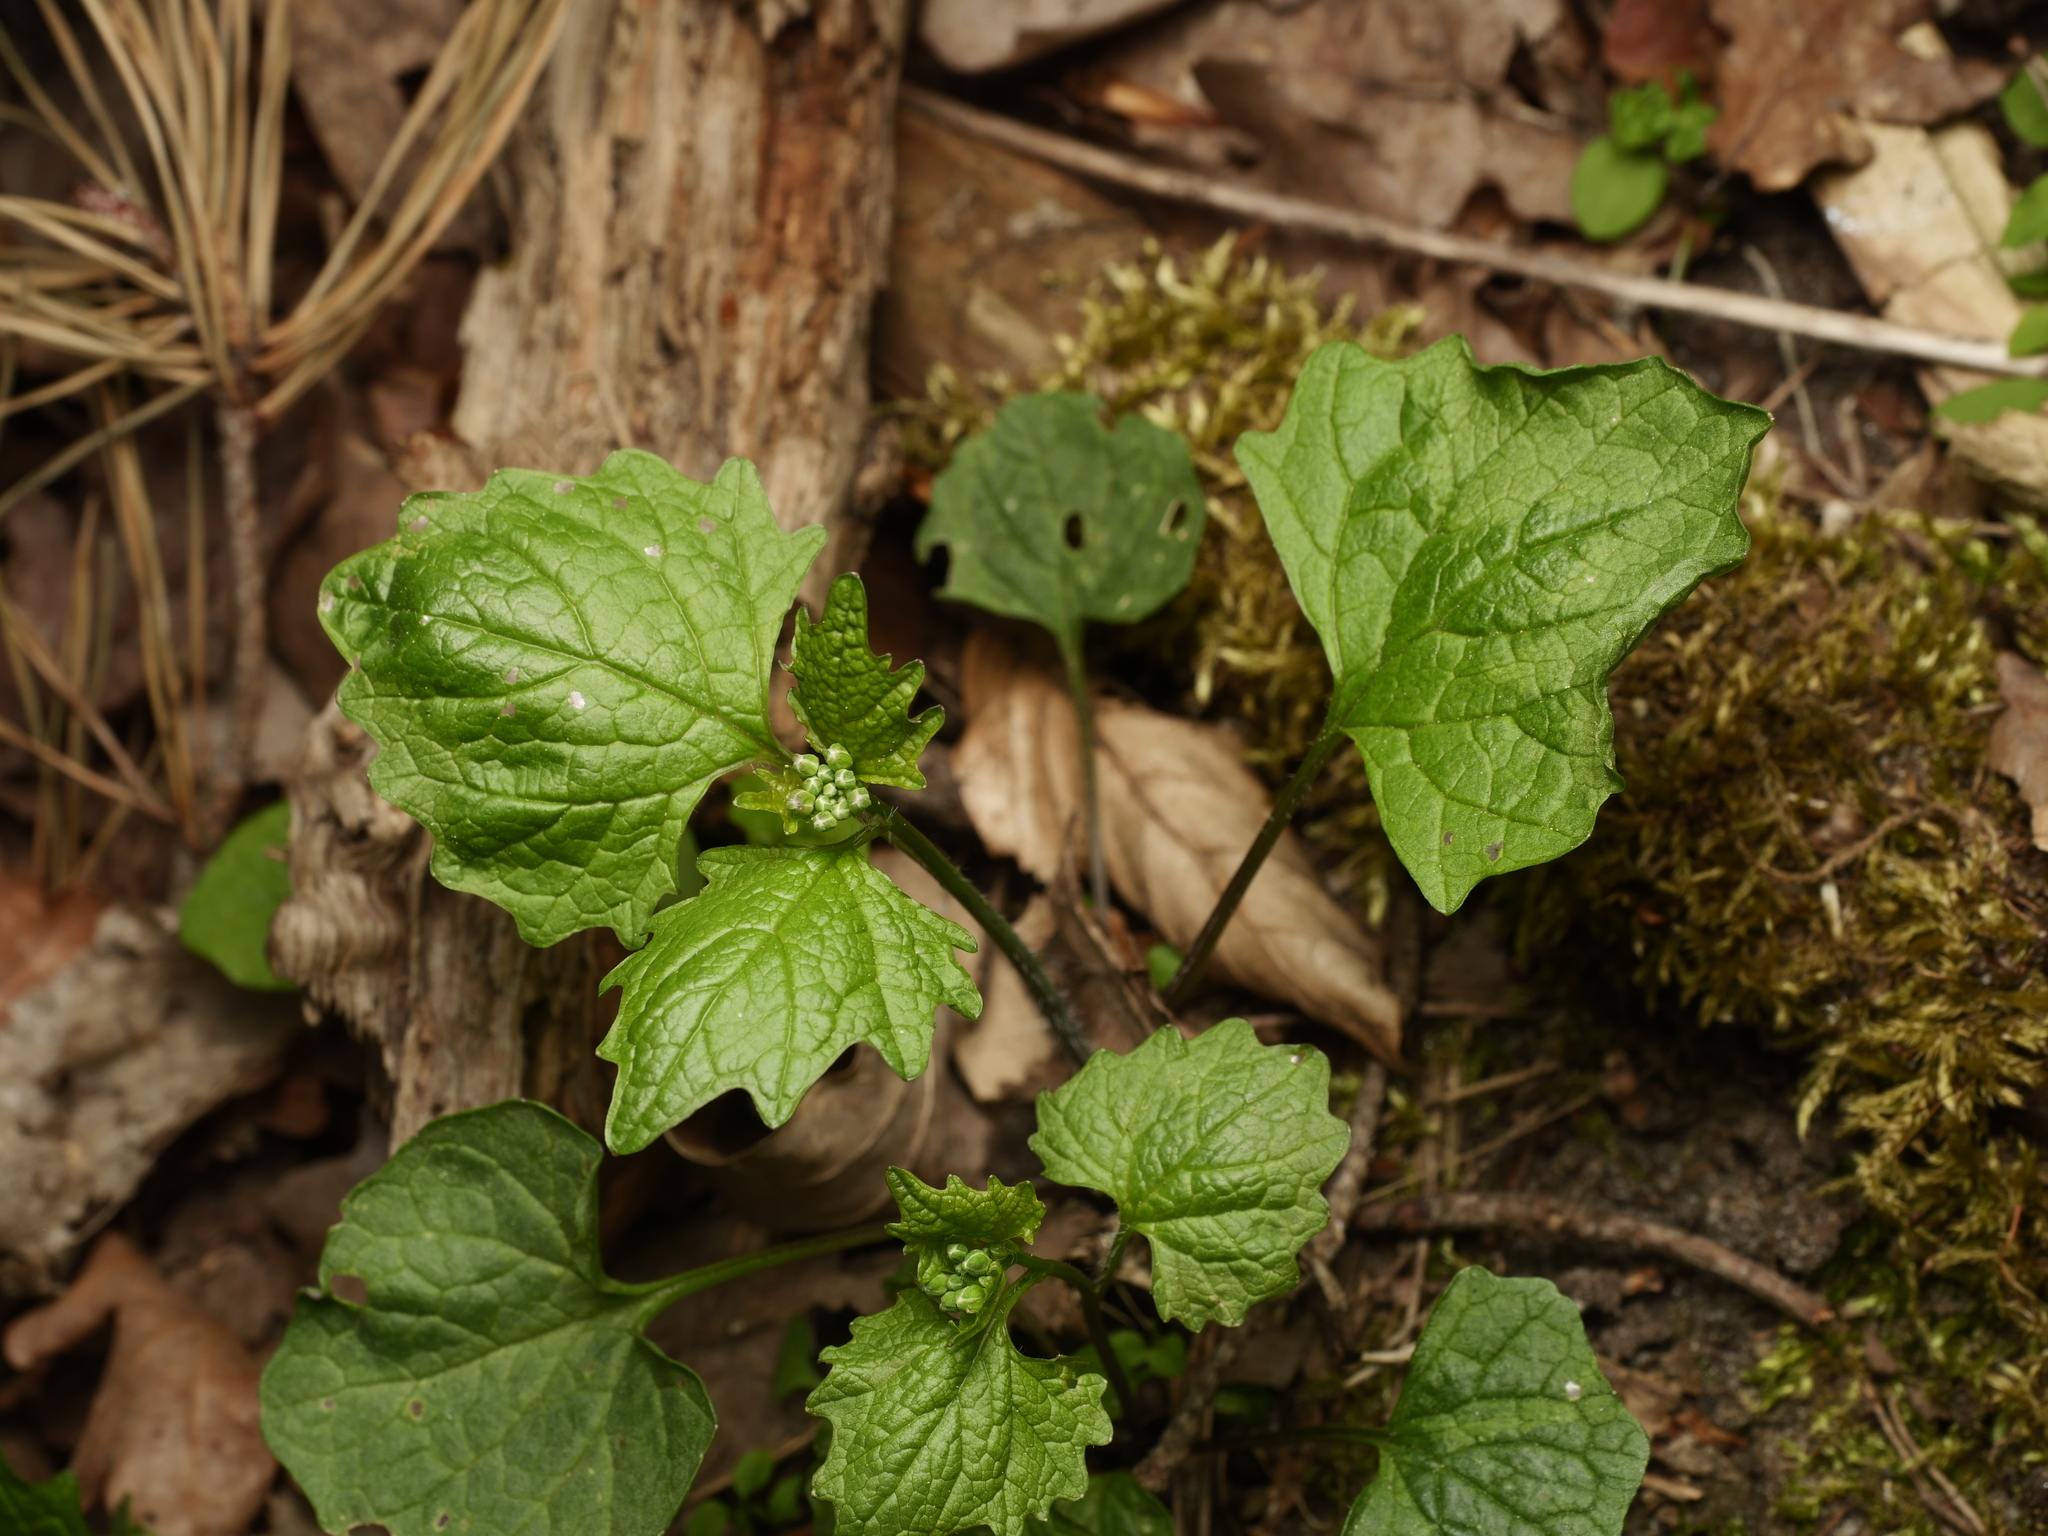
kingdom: Plantae
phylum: Tracheophyta
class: Magnoliopsida
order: Brassicales
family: Brassicaceae
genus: Alliaria
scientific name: Alliaria petiolata
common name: Garlic mustard
